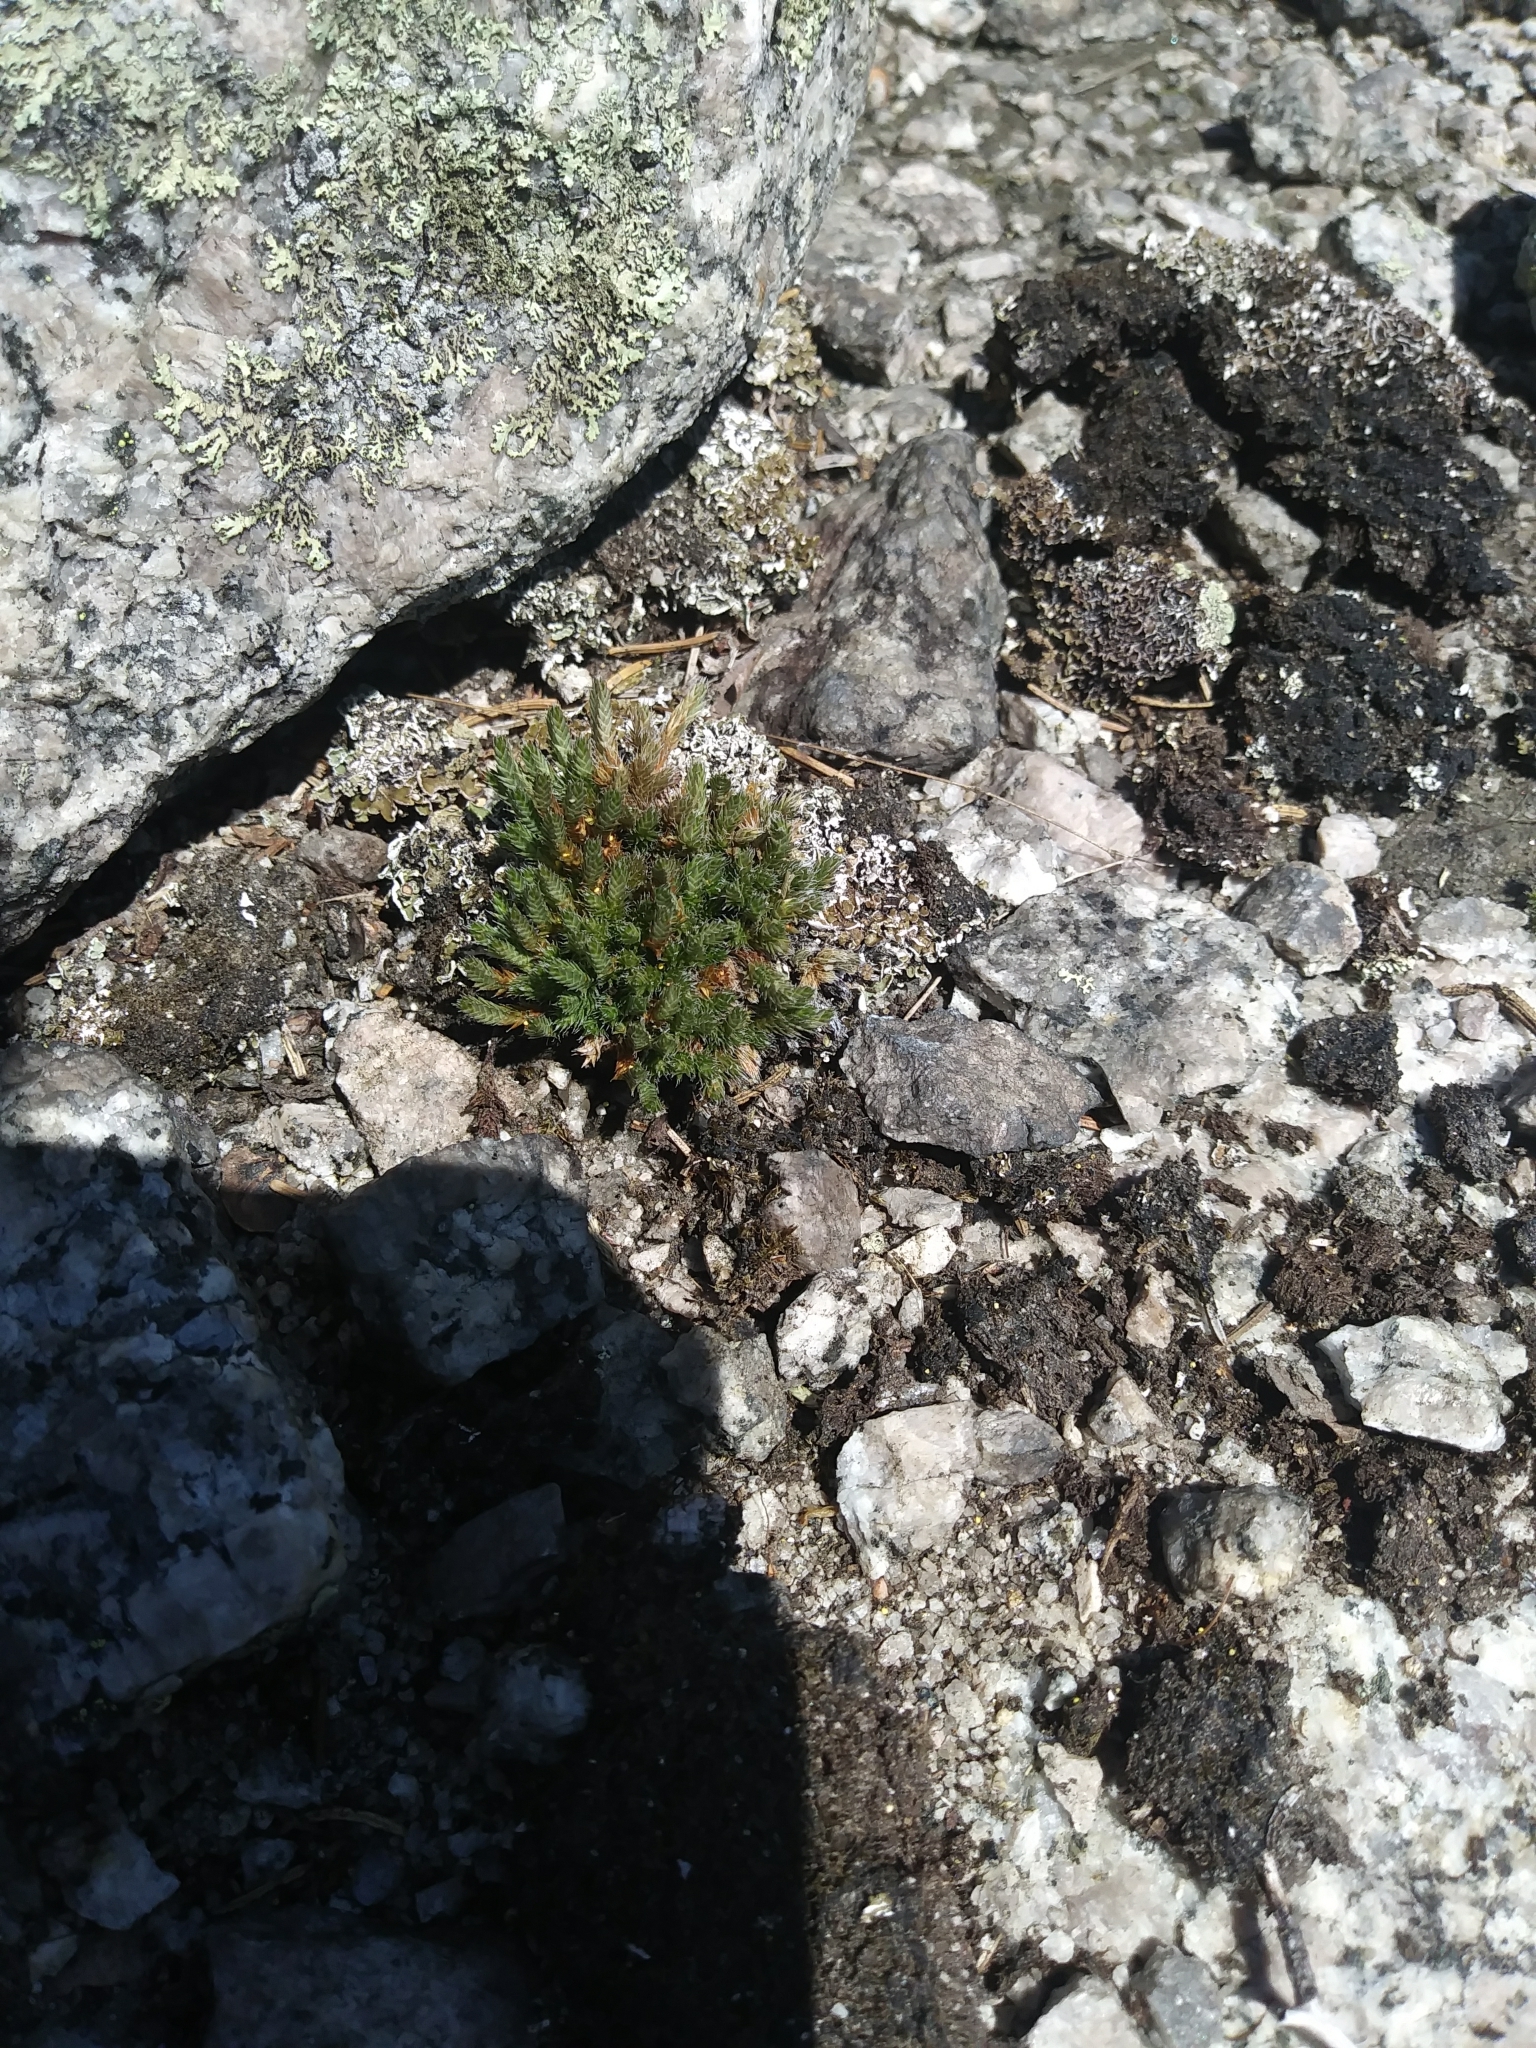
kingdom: Plantae
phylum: Tracheophyta
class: Lycopodiopsida
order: Selaginellales
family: Selaginellaceae
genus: Selaginella
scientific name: Selaginella rupestris
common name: Dwarf spikemoss
